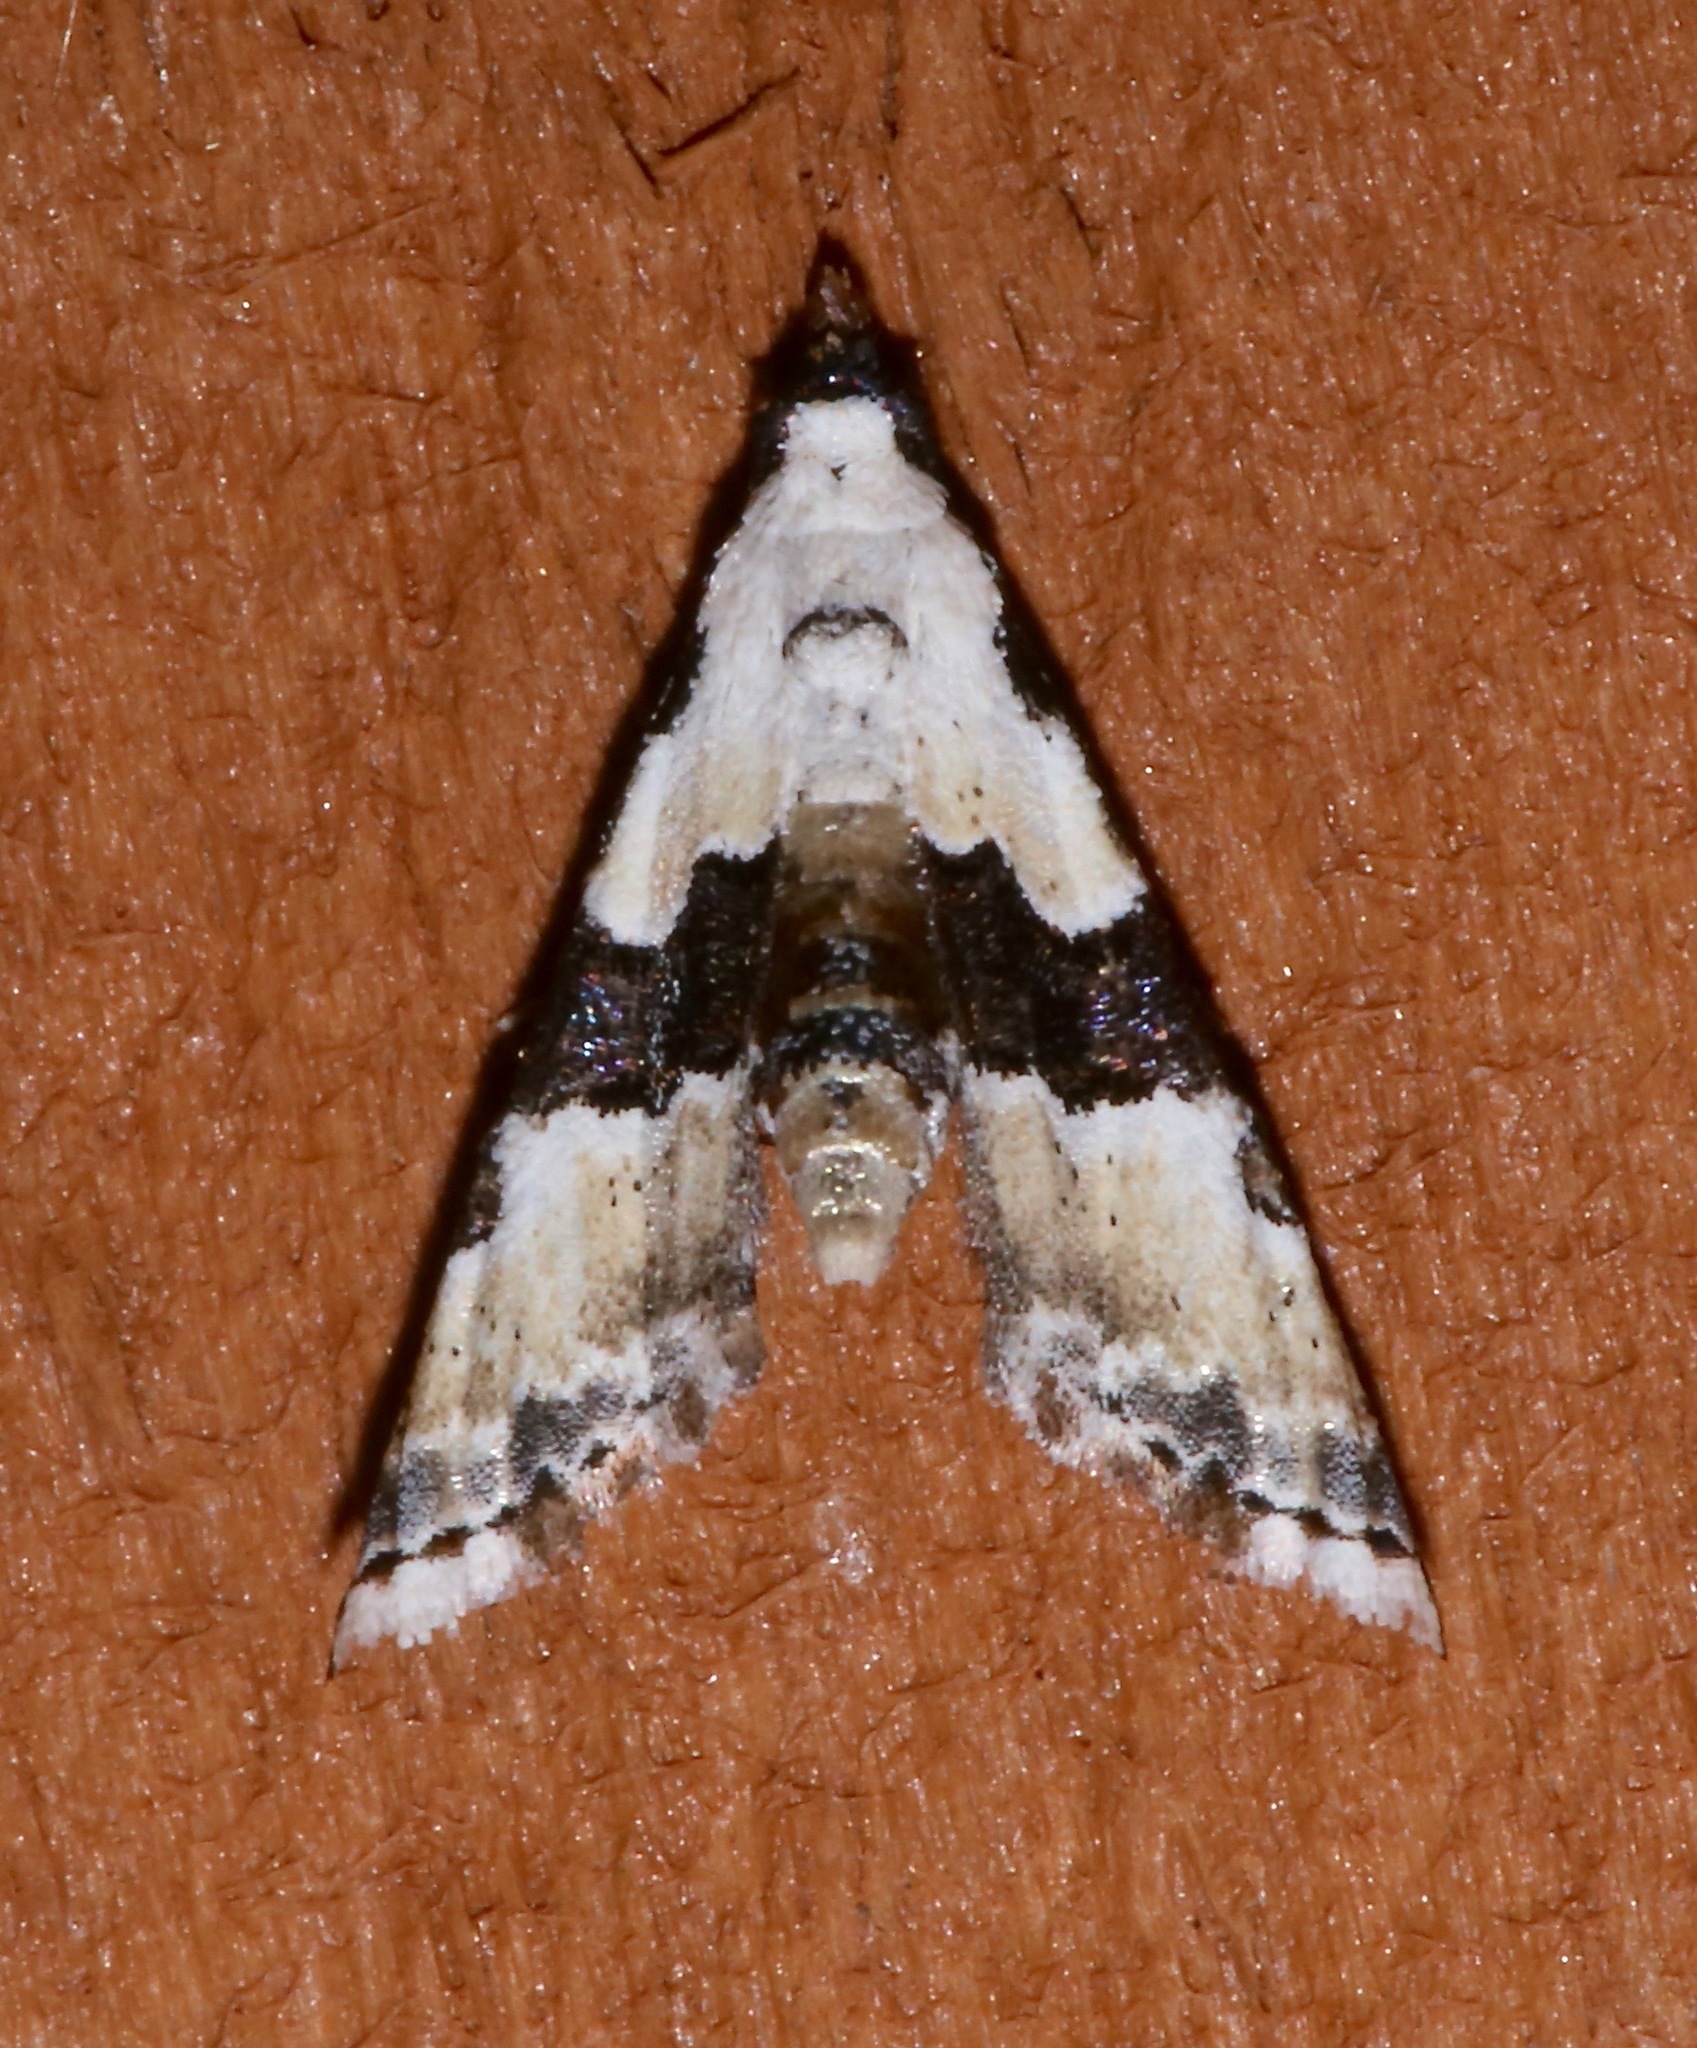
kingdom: Animalia
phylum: Arthropoda
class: Insecta
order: Lepidoptera
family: Noctuidae
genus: Nigetia
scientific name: Nigetia formosalis
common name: Thin-winged owlet
